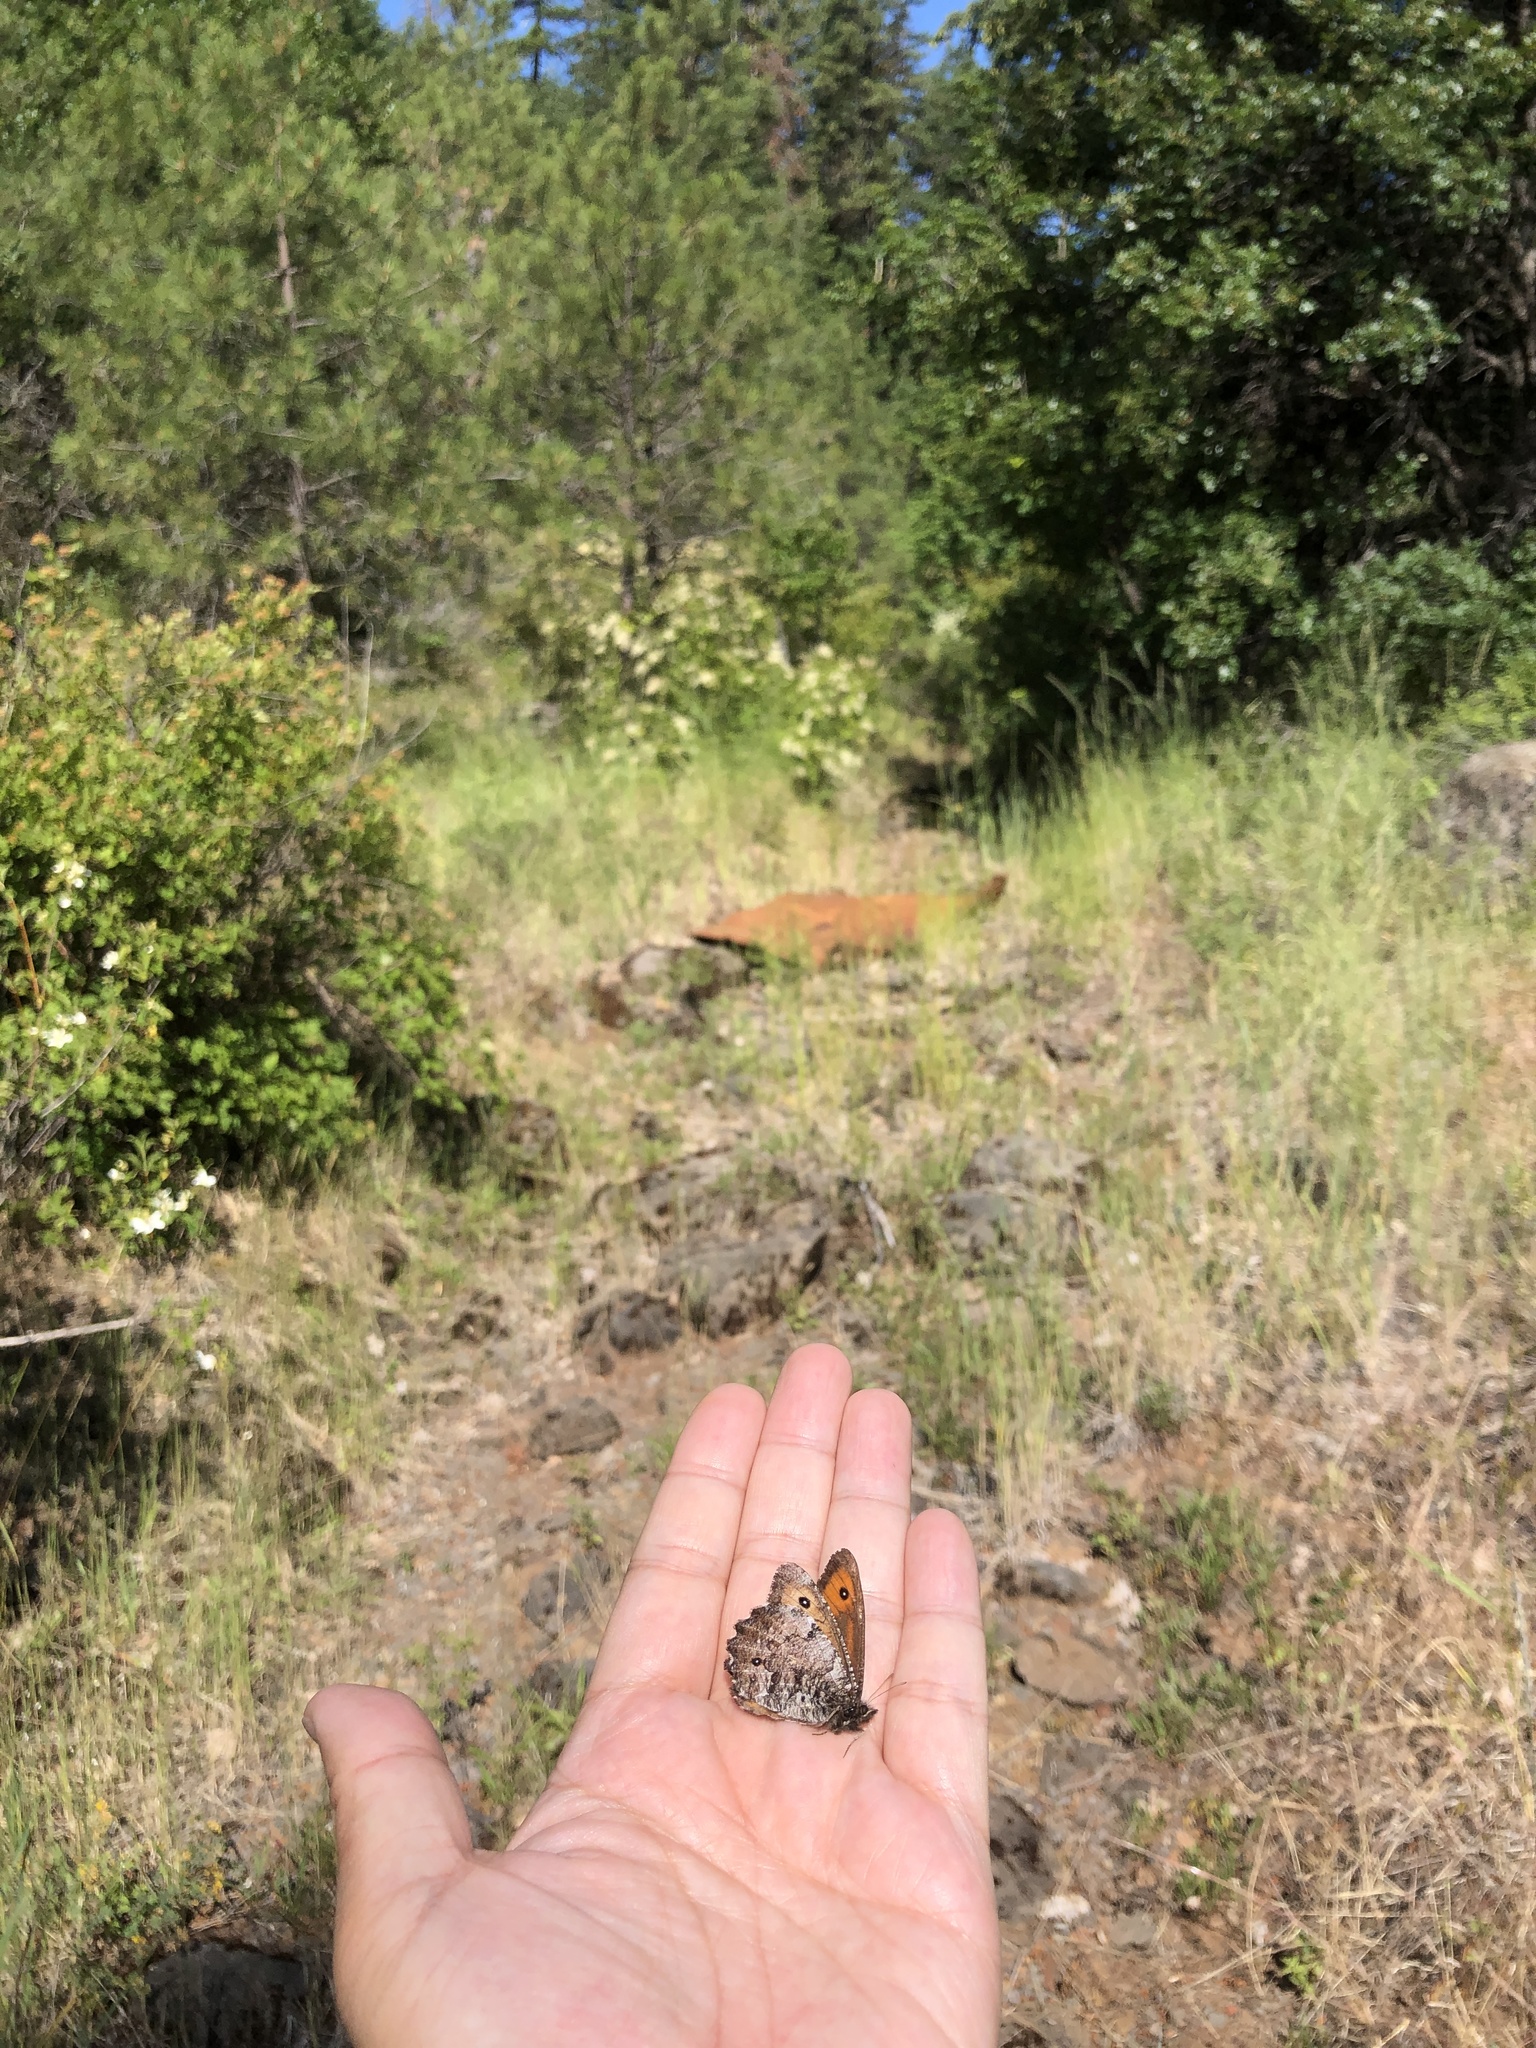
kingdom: Animalia
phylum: Arthropoda
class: Insecta
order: Lepidoptera
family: Nymphalidae
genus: Oeneis
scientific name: Oeneis nevadensis
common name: Great arctic
